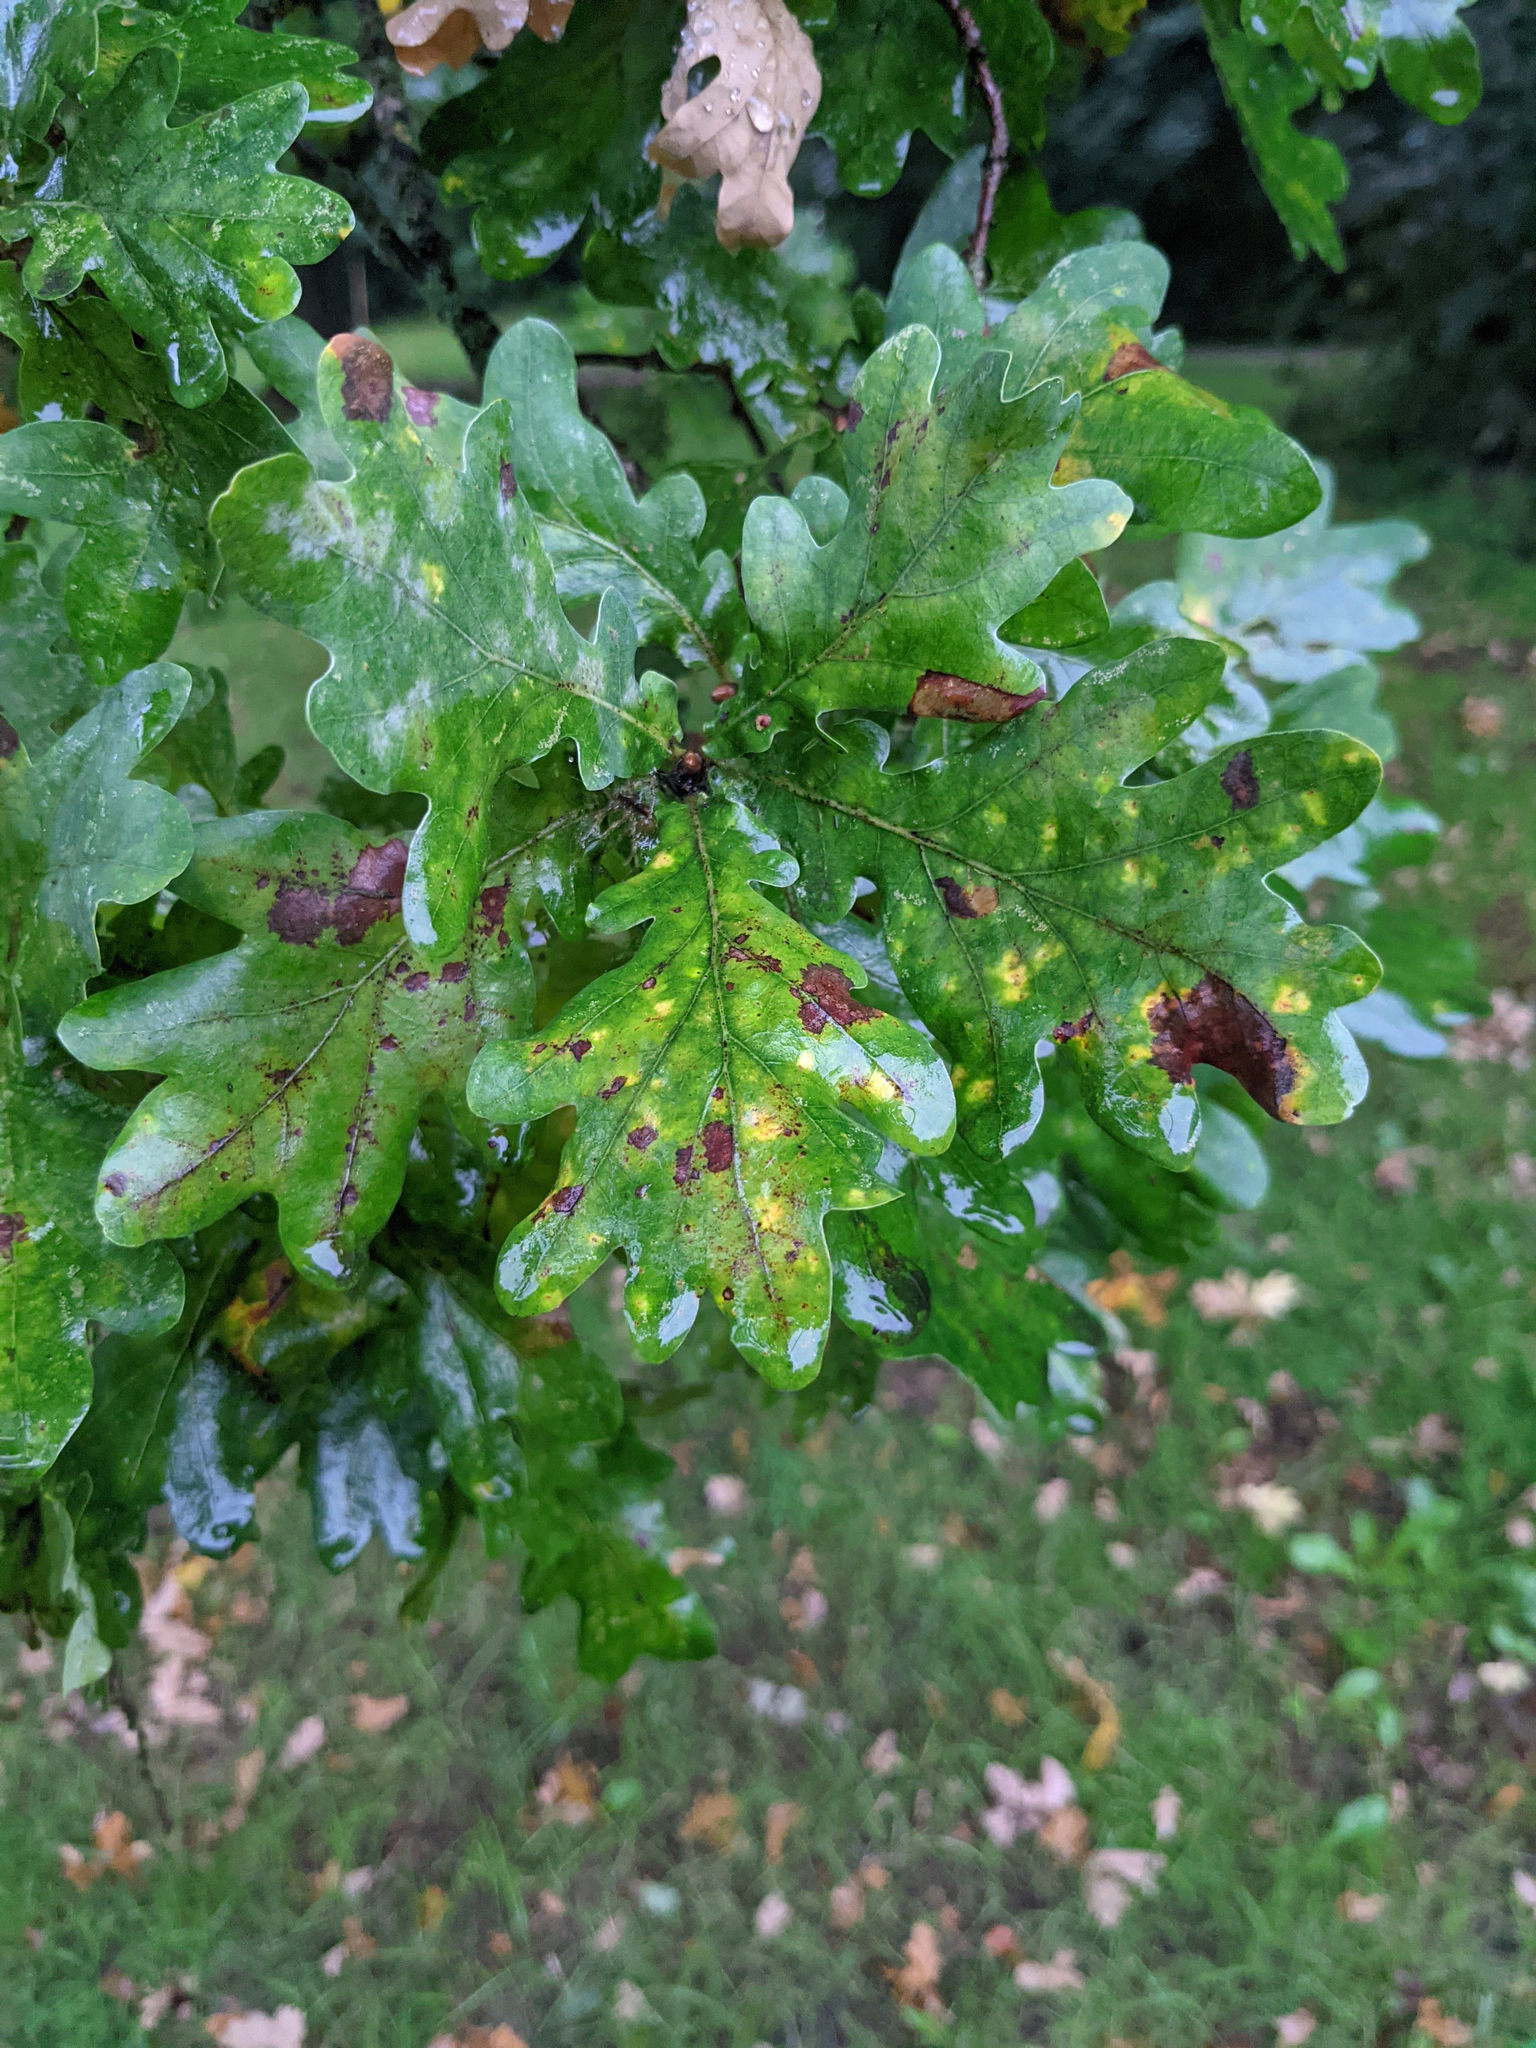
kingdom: Plantae
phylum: Tracheophyta
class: Magnoliopsida
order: Fagales
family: Fagaceae
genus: Quercus
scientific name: Quercus robur
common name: Pedunculate oak
